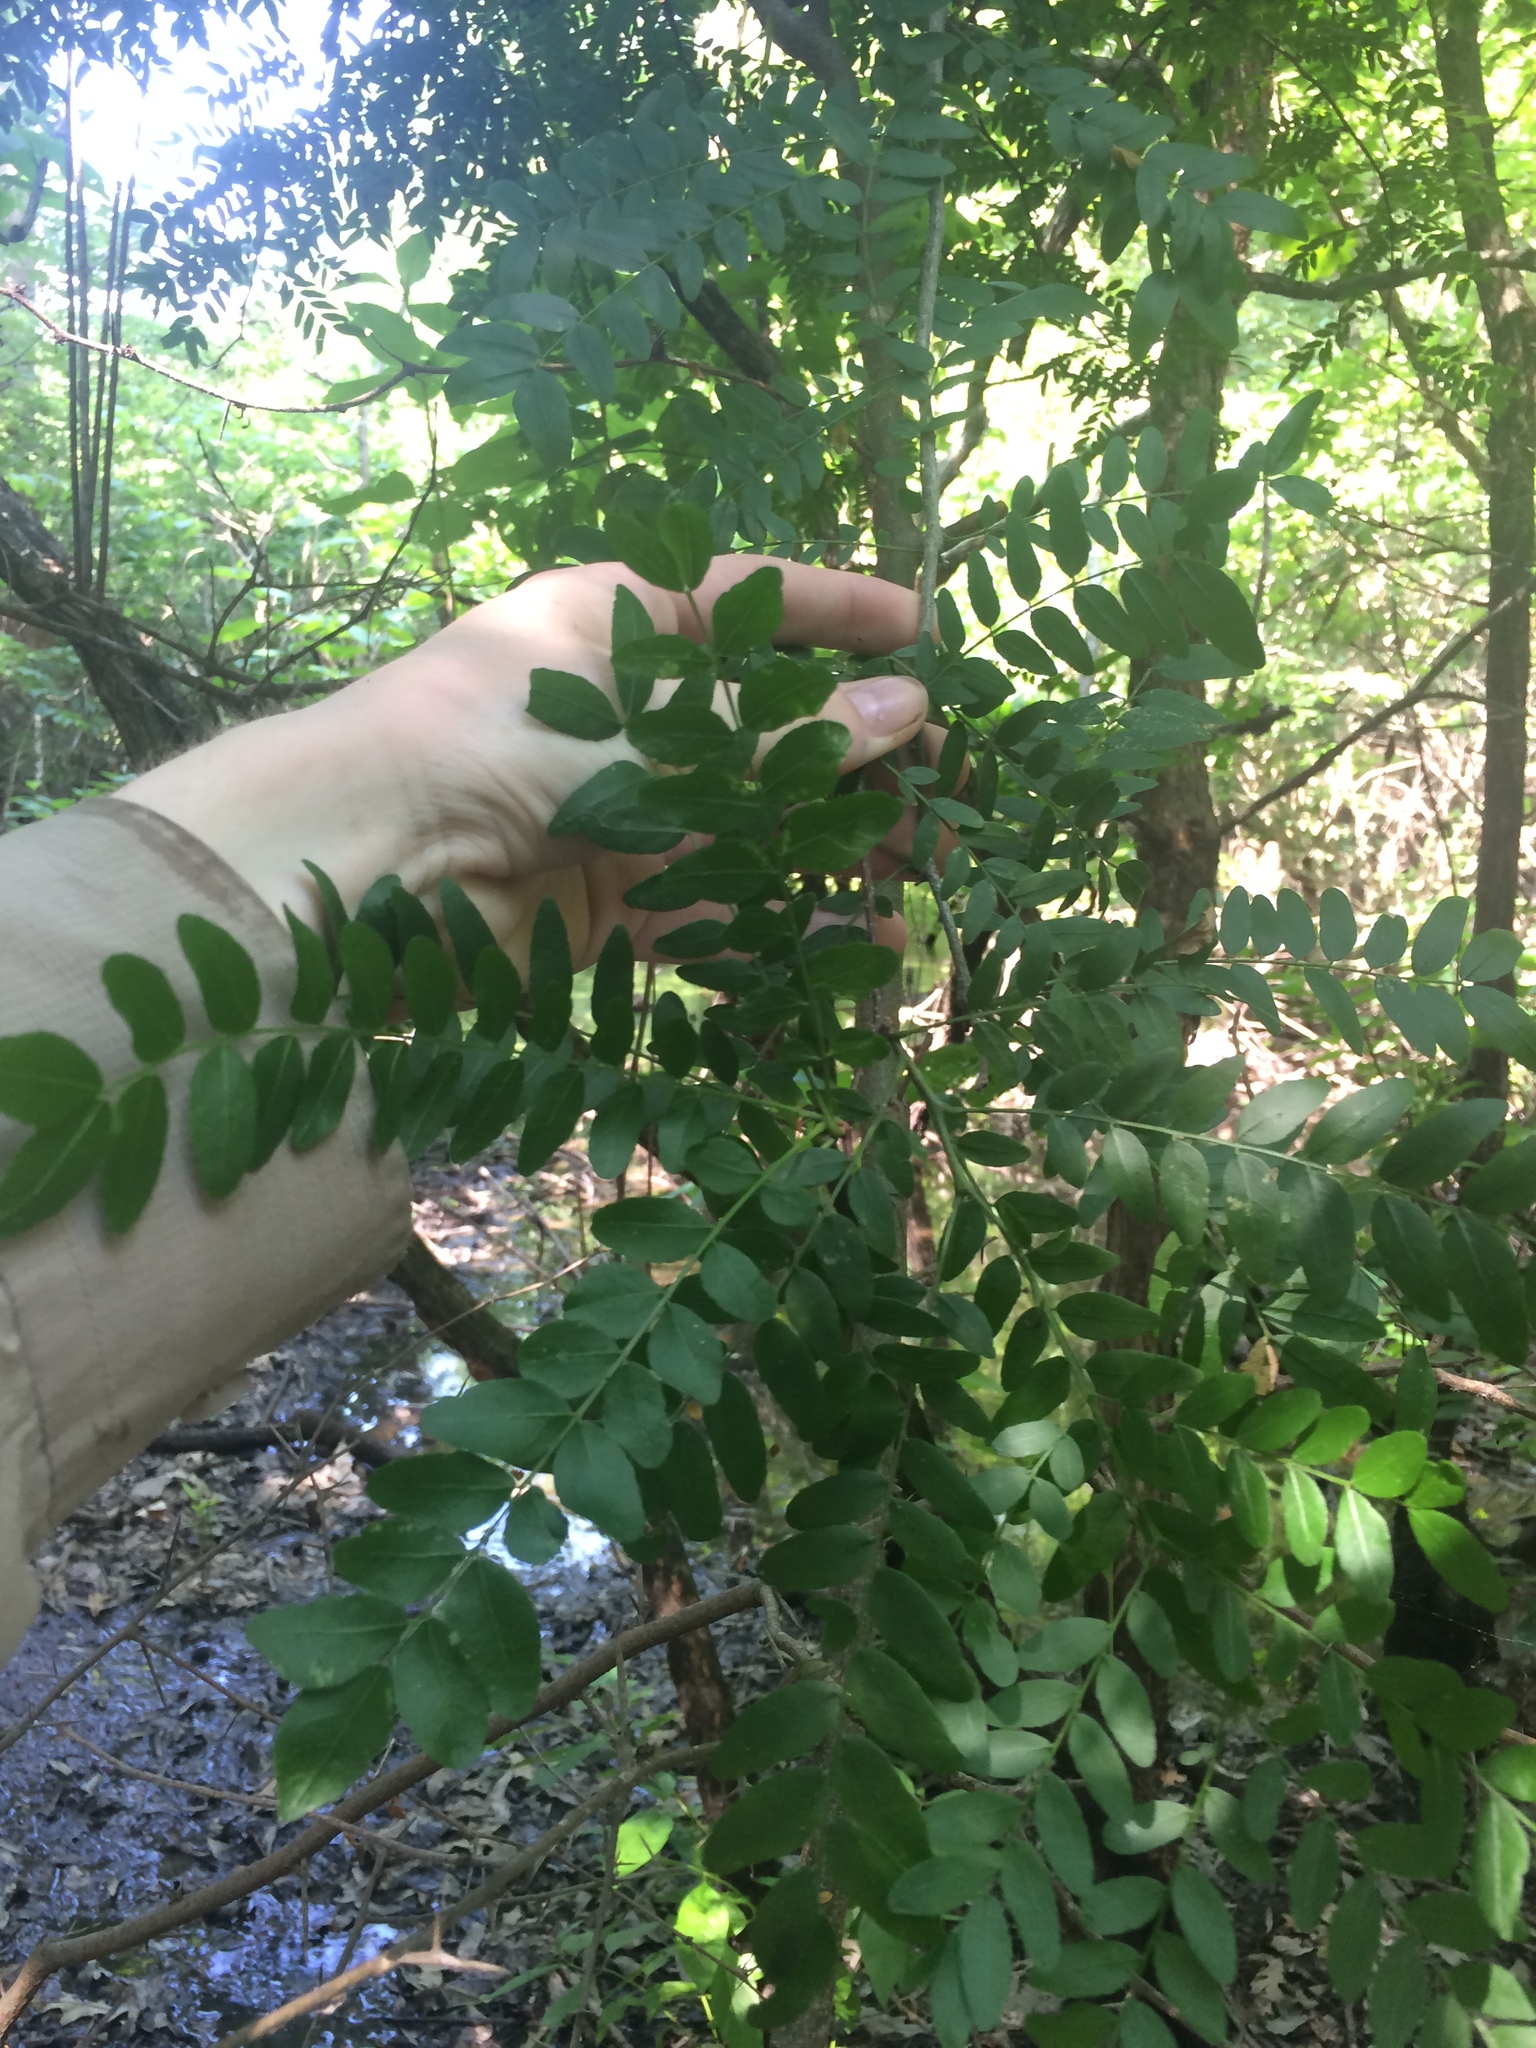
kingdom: Plantae
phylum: Tracheophyta
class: Magnoliopsida
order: Fabales
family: Fabaceae
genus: Gleditsia
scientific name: Gleditsia triacanthos
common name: Common honeylocust
